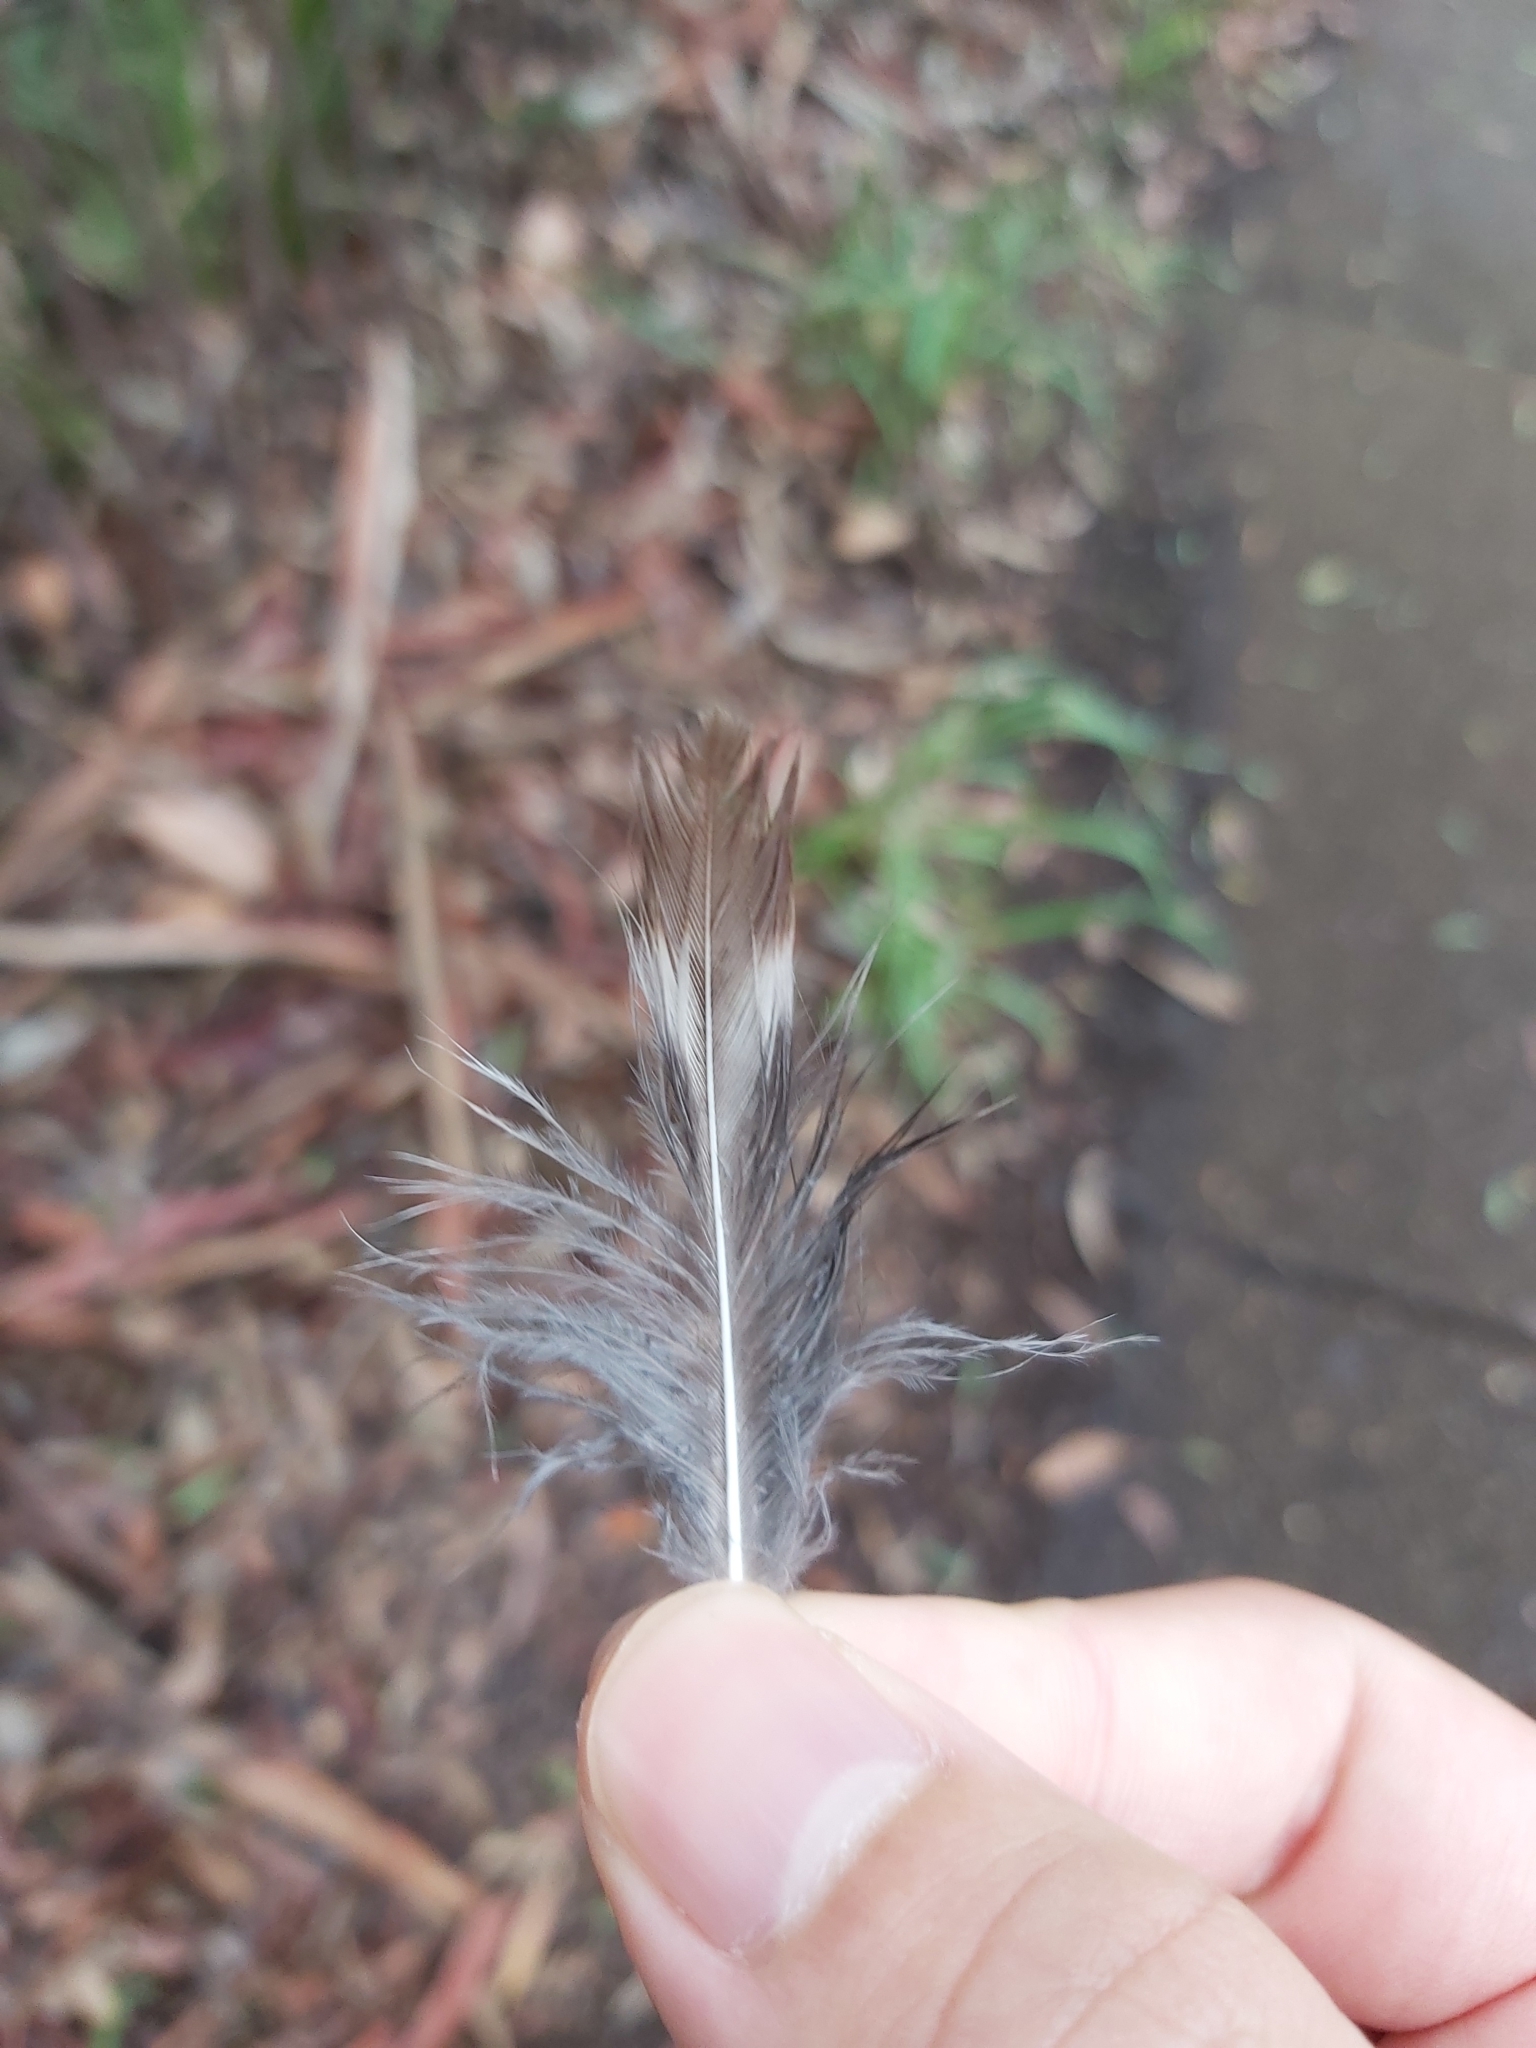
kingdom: Animalia
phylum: Chordata
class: Aves
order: Coraciiformes
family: Alcedinidae
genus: Dacelo
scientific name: Dacelo novaeguineae
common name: Laughing kookaburra
